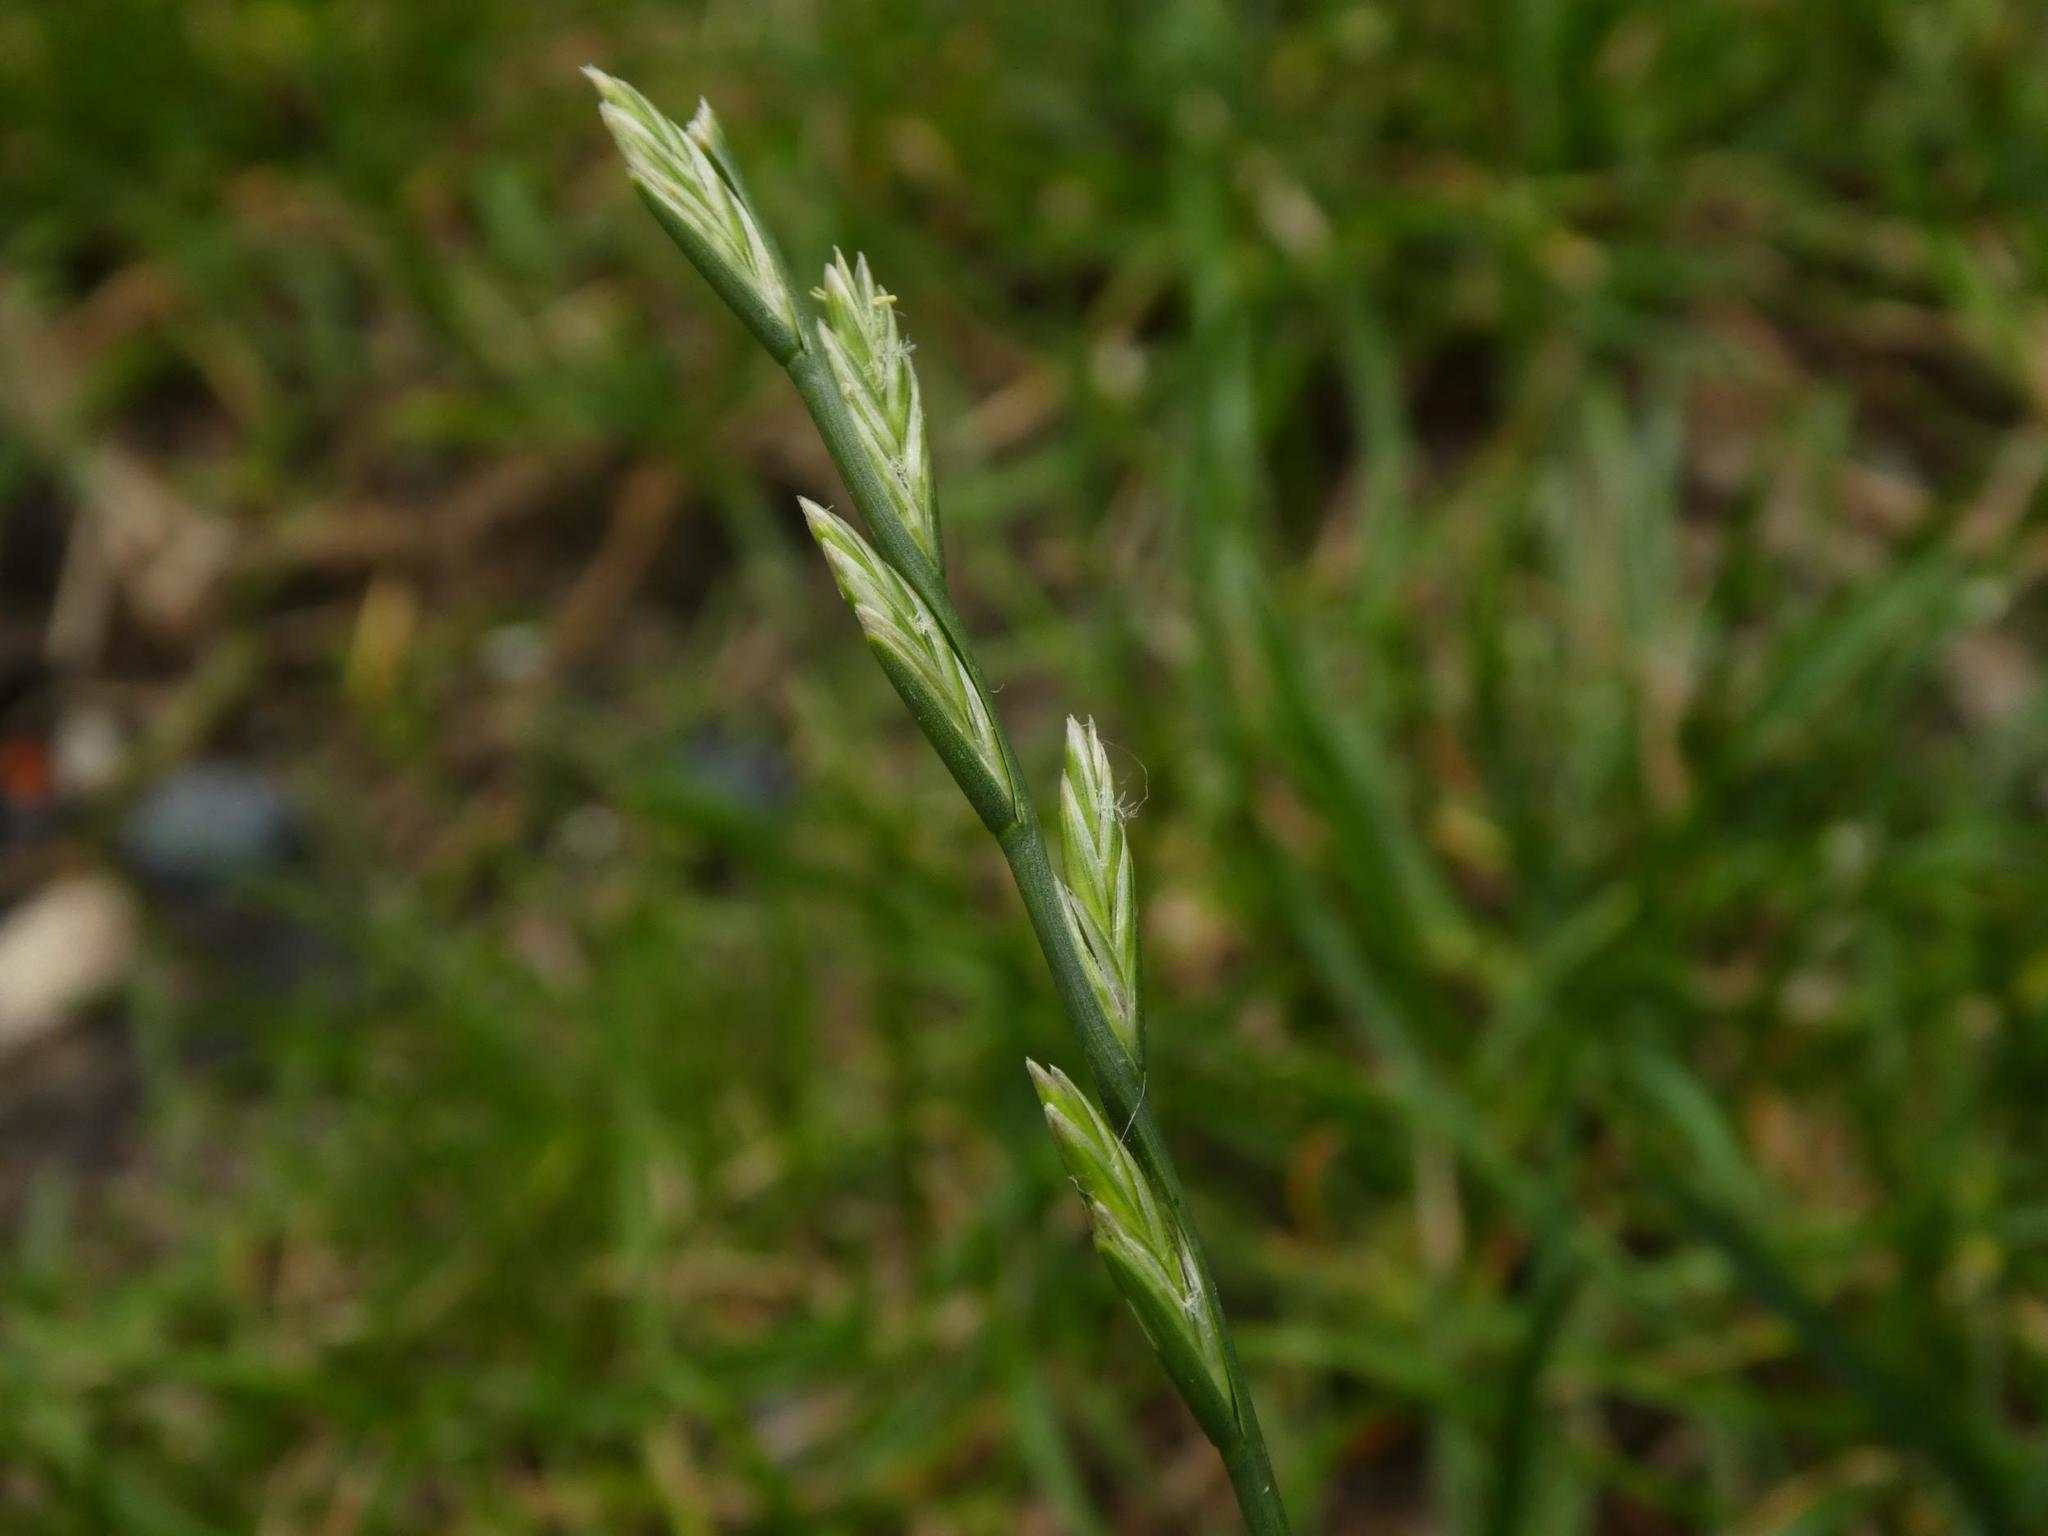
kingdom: Plantae
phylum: Tracheophyta
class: Liliopsida
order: Poales
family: Poaceae
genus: Lolium
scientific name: Lolium perenne
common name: Perennial ryegrass
